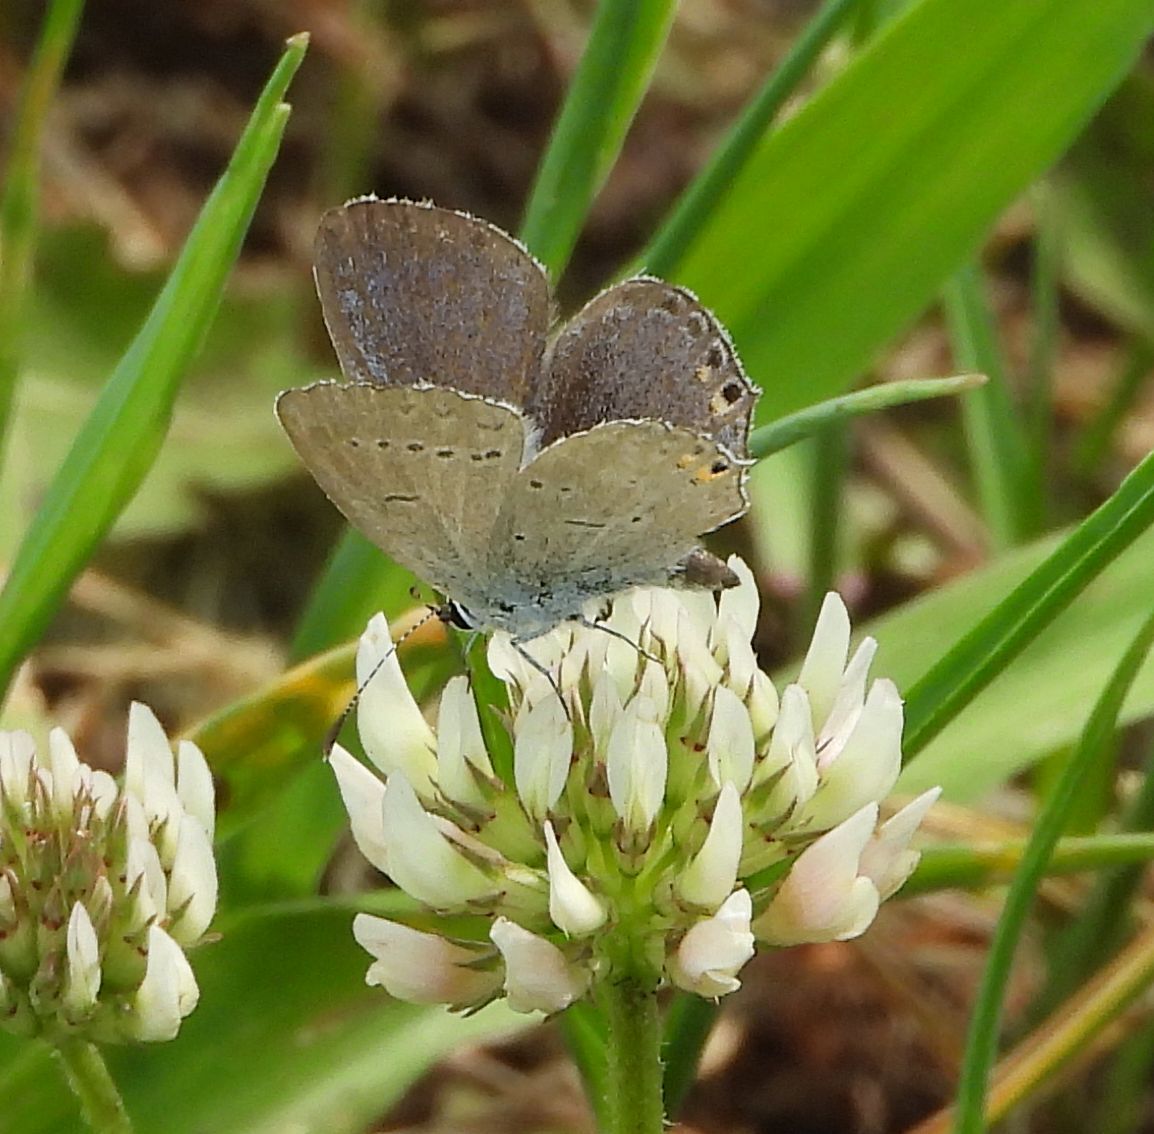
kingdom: Animalia
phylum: Arthropoda
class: Insecta
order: Lepidoptera
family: Lycaenidae
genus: Elkalyce
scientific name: Elkalyce comyntas
